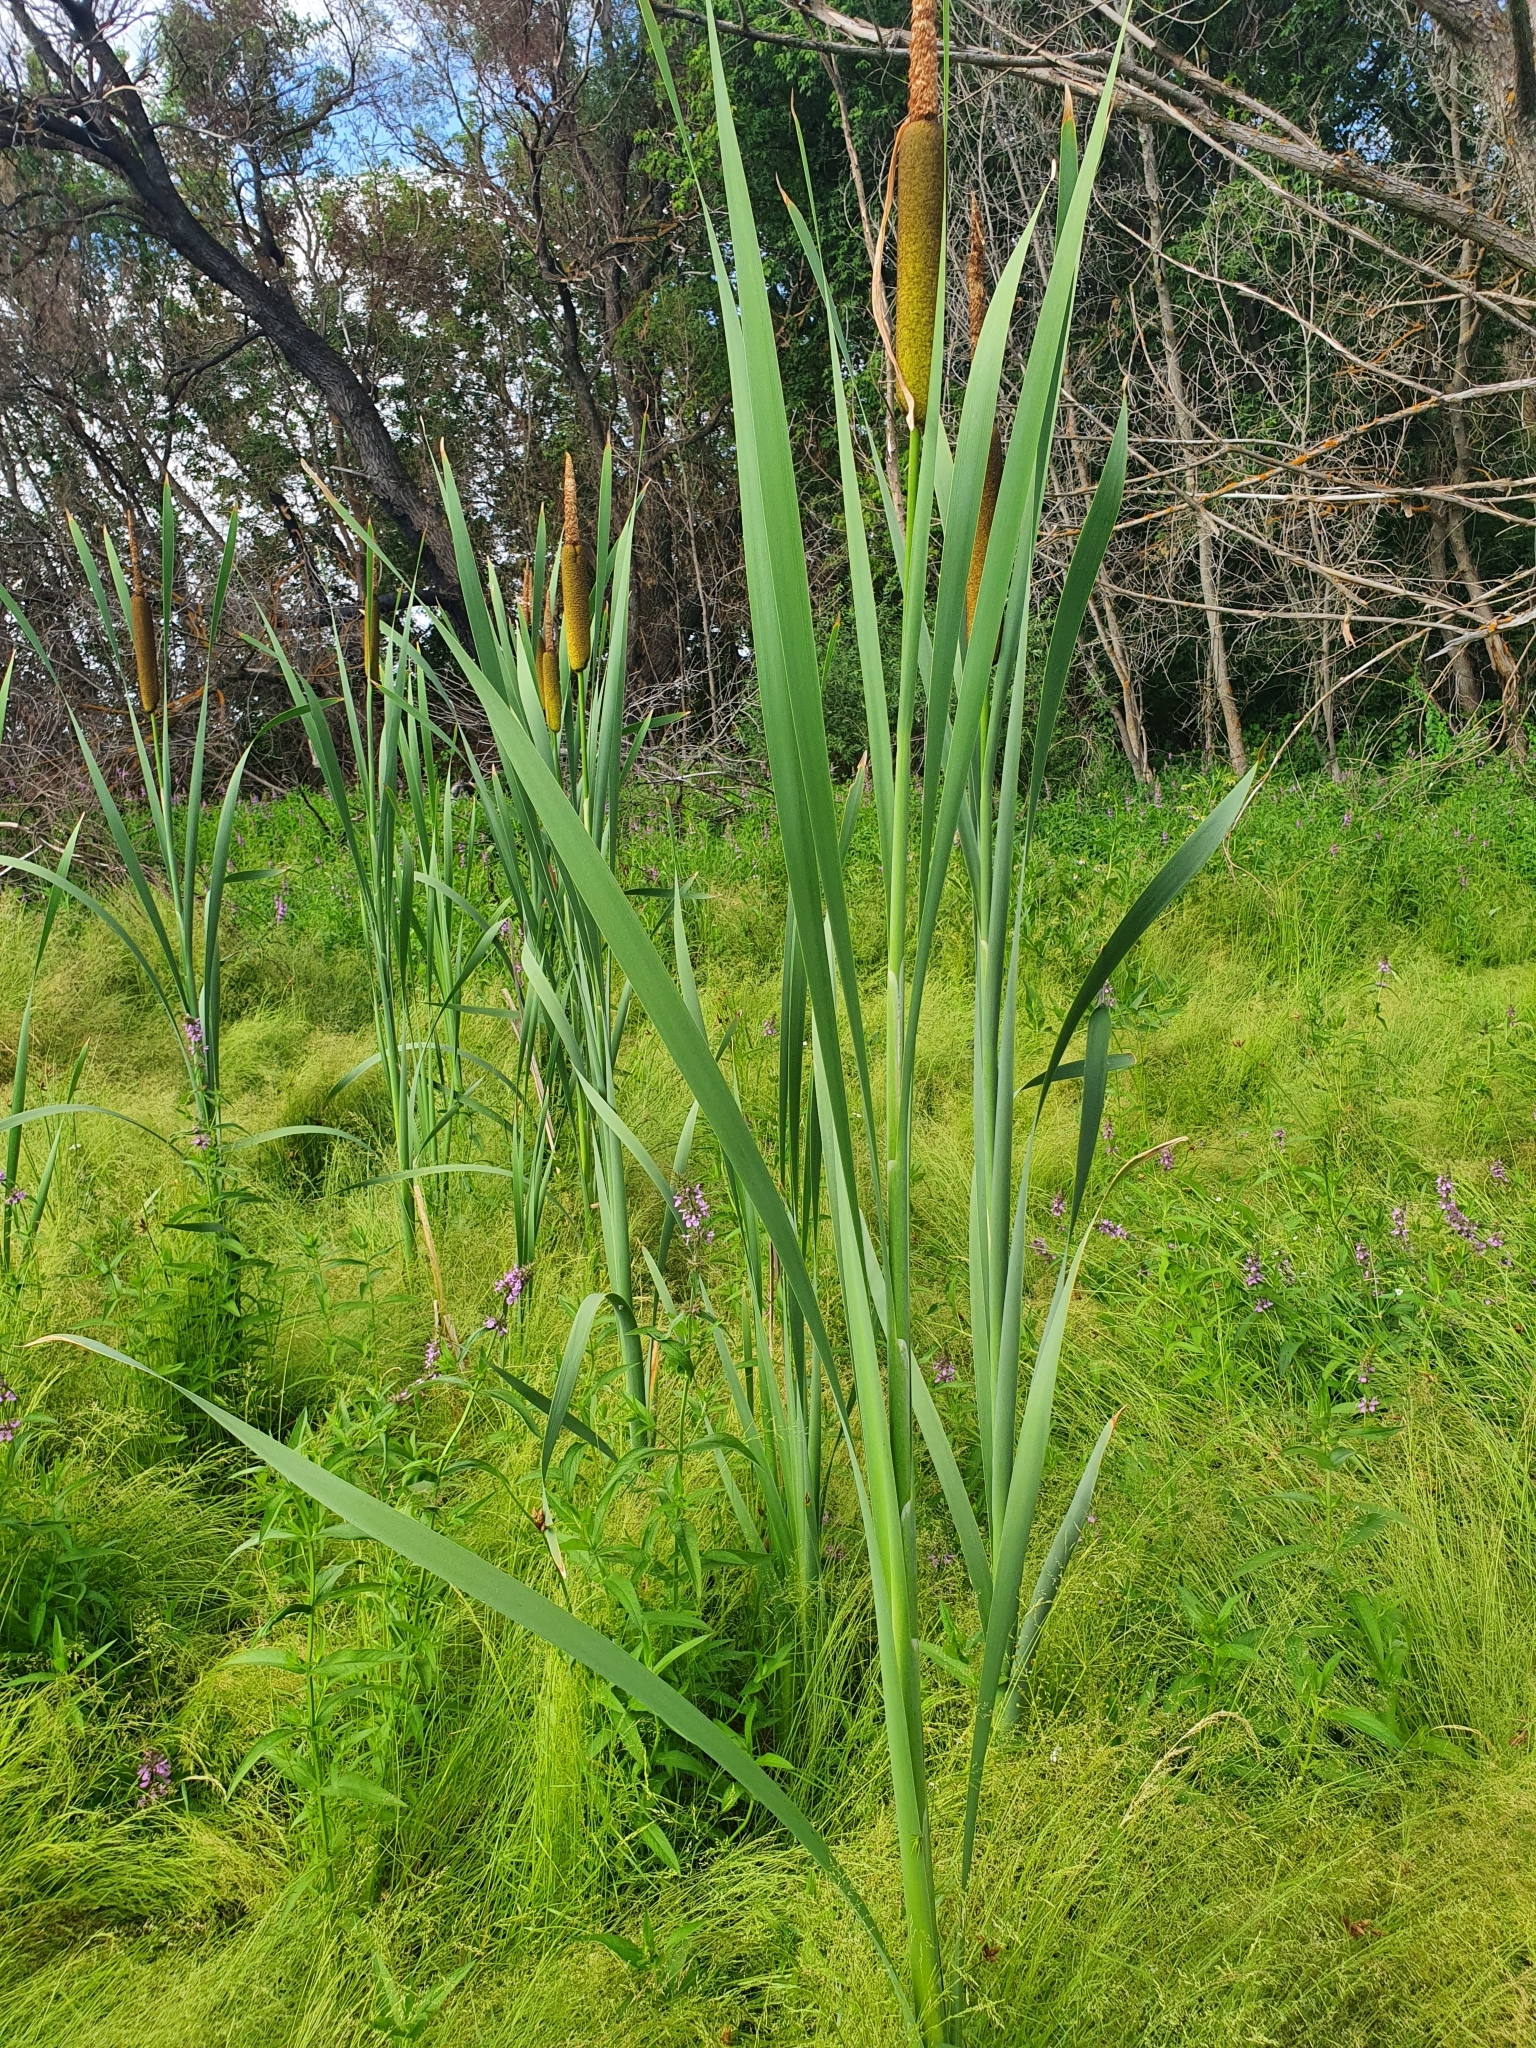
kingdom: Plantae
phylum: Tracheophyta
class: Liliopsida
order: Poales
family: Typhaceae
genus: Typha
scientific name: Typha latifolia
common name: Broadleaf cattail
